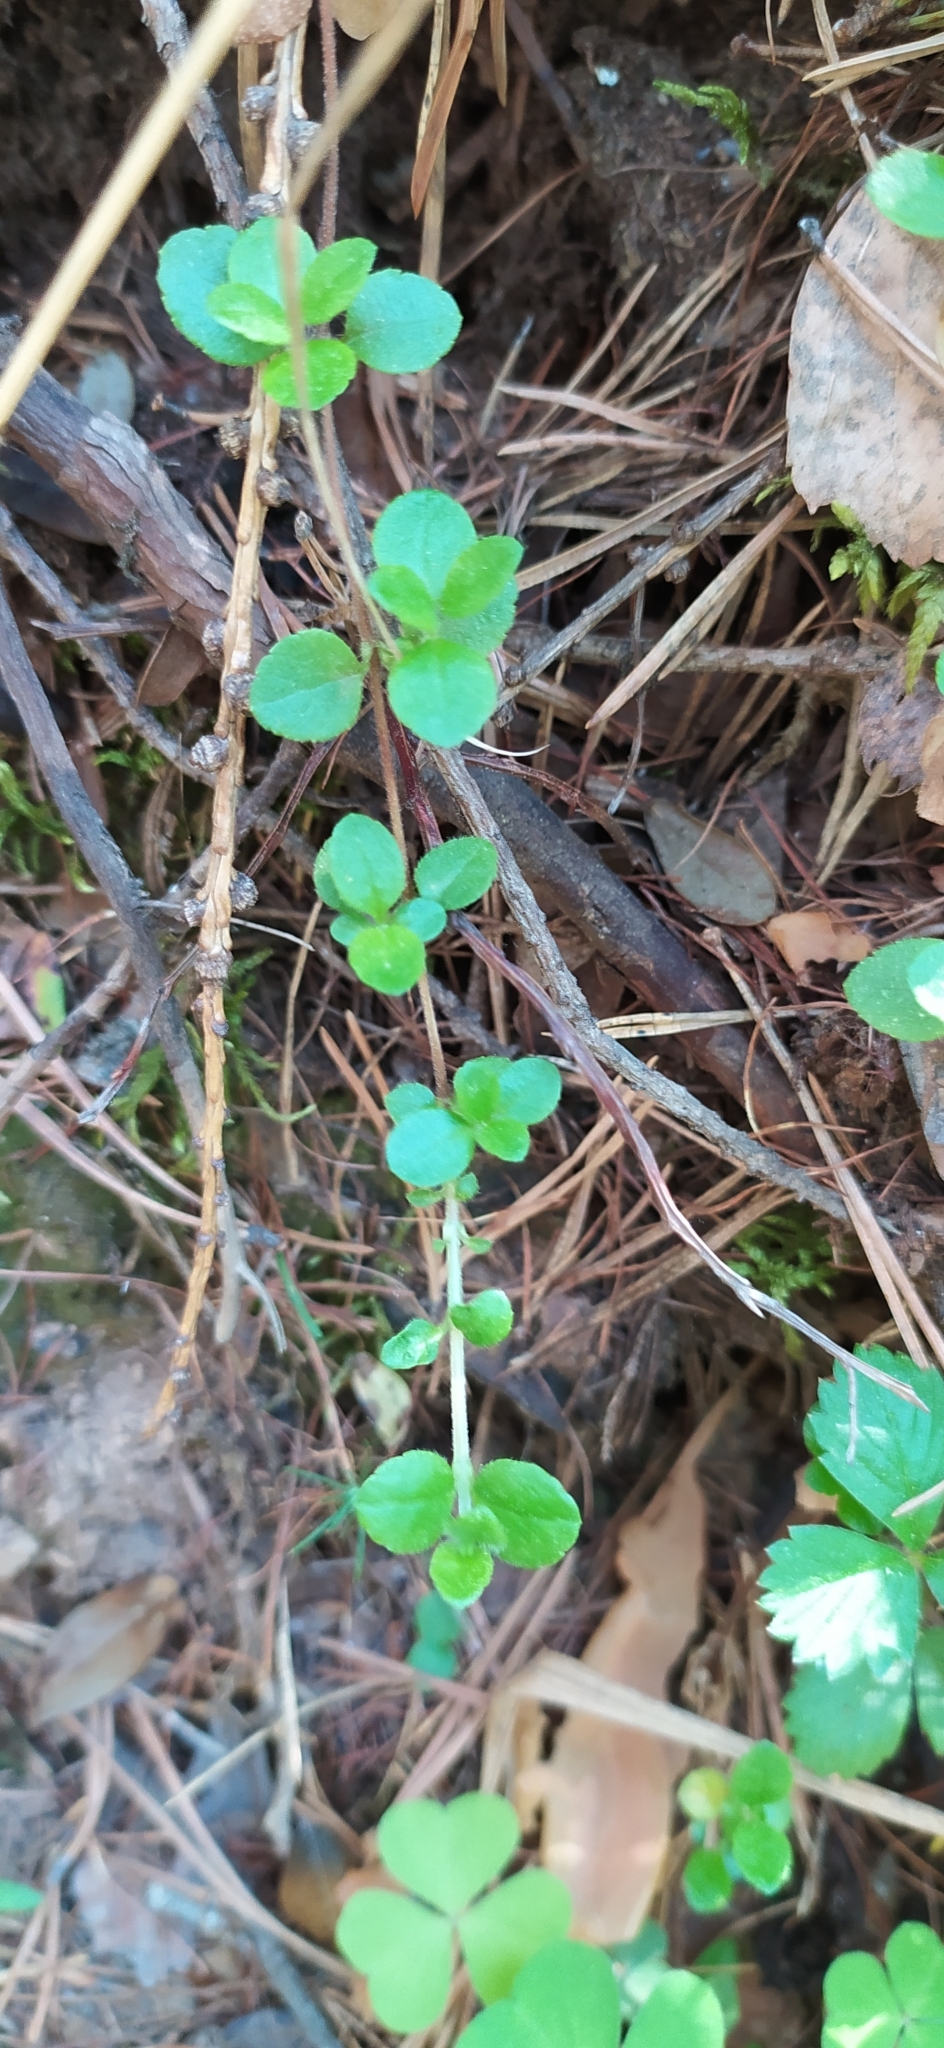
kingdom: Plantae
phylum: Tracheophyta
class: Magnoliopsida
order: Dipsacales
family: Caprifoliaceae
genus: Linnaea
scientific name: Linnaea borealis
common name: Twinflower
